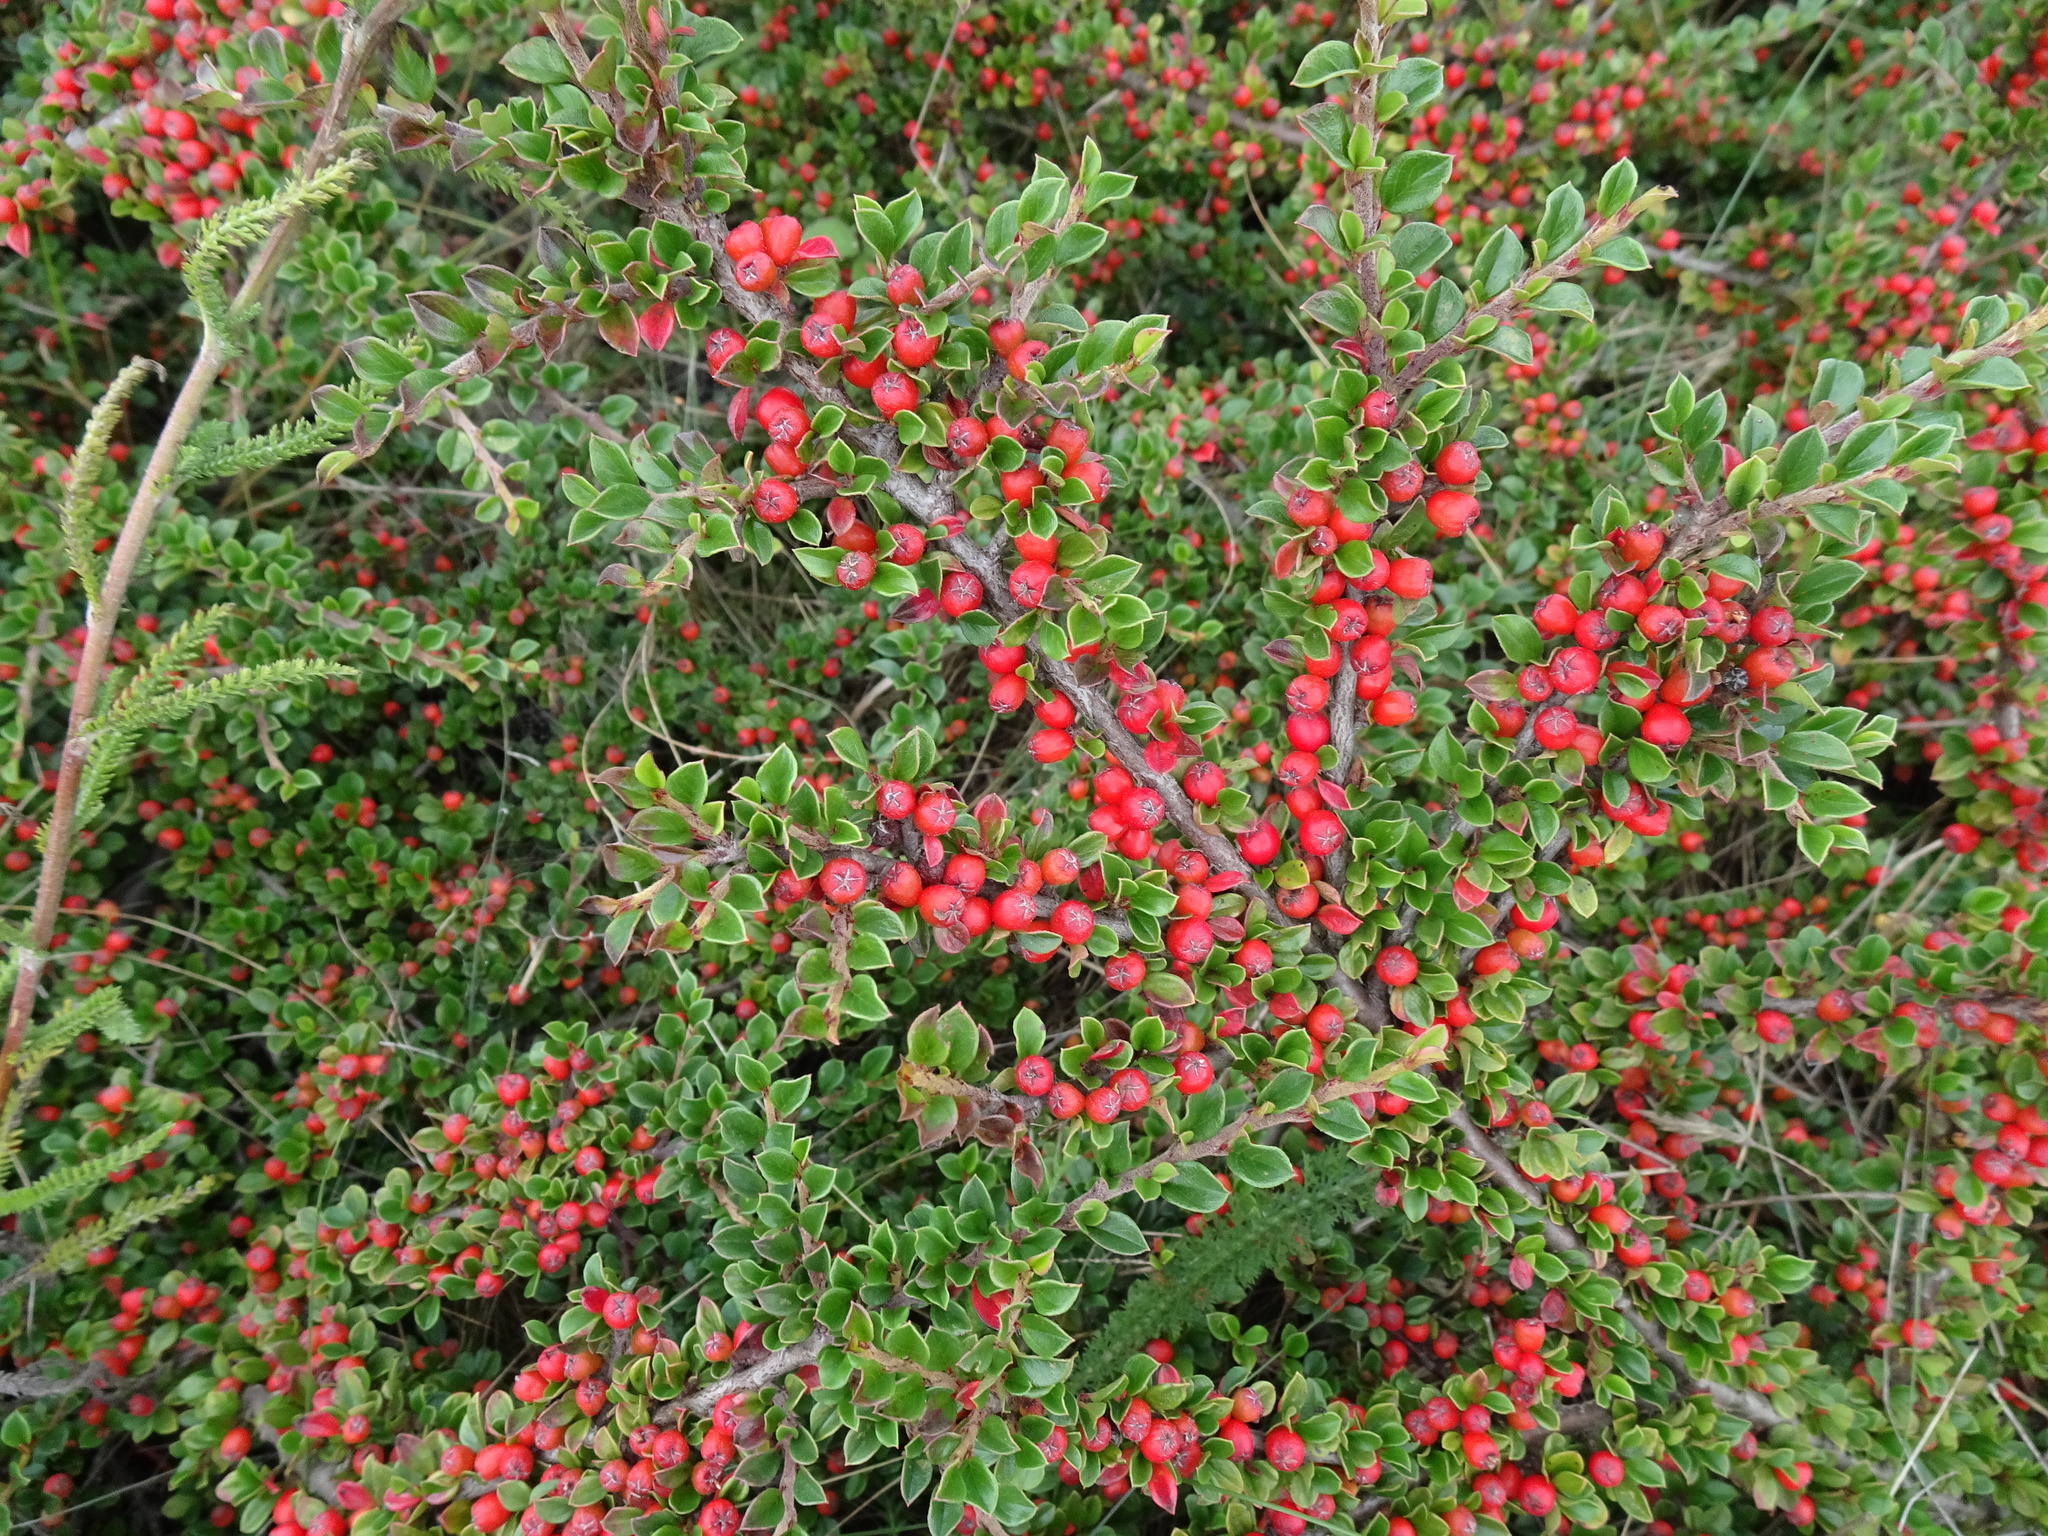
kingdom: Plantae
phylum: Tracheophyta
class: Magnoliopsida
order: Rosales
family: Rosaceae
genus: Cotoneaster
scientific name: Cotoneaster horizontalis
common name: Wall cotoneaster
